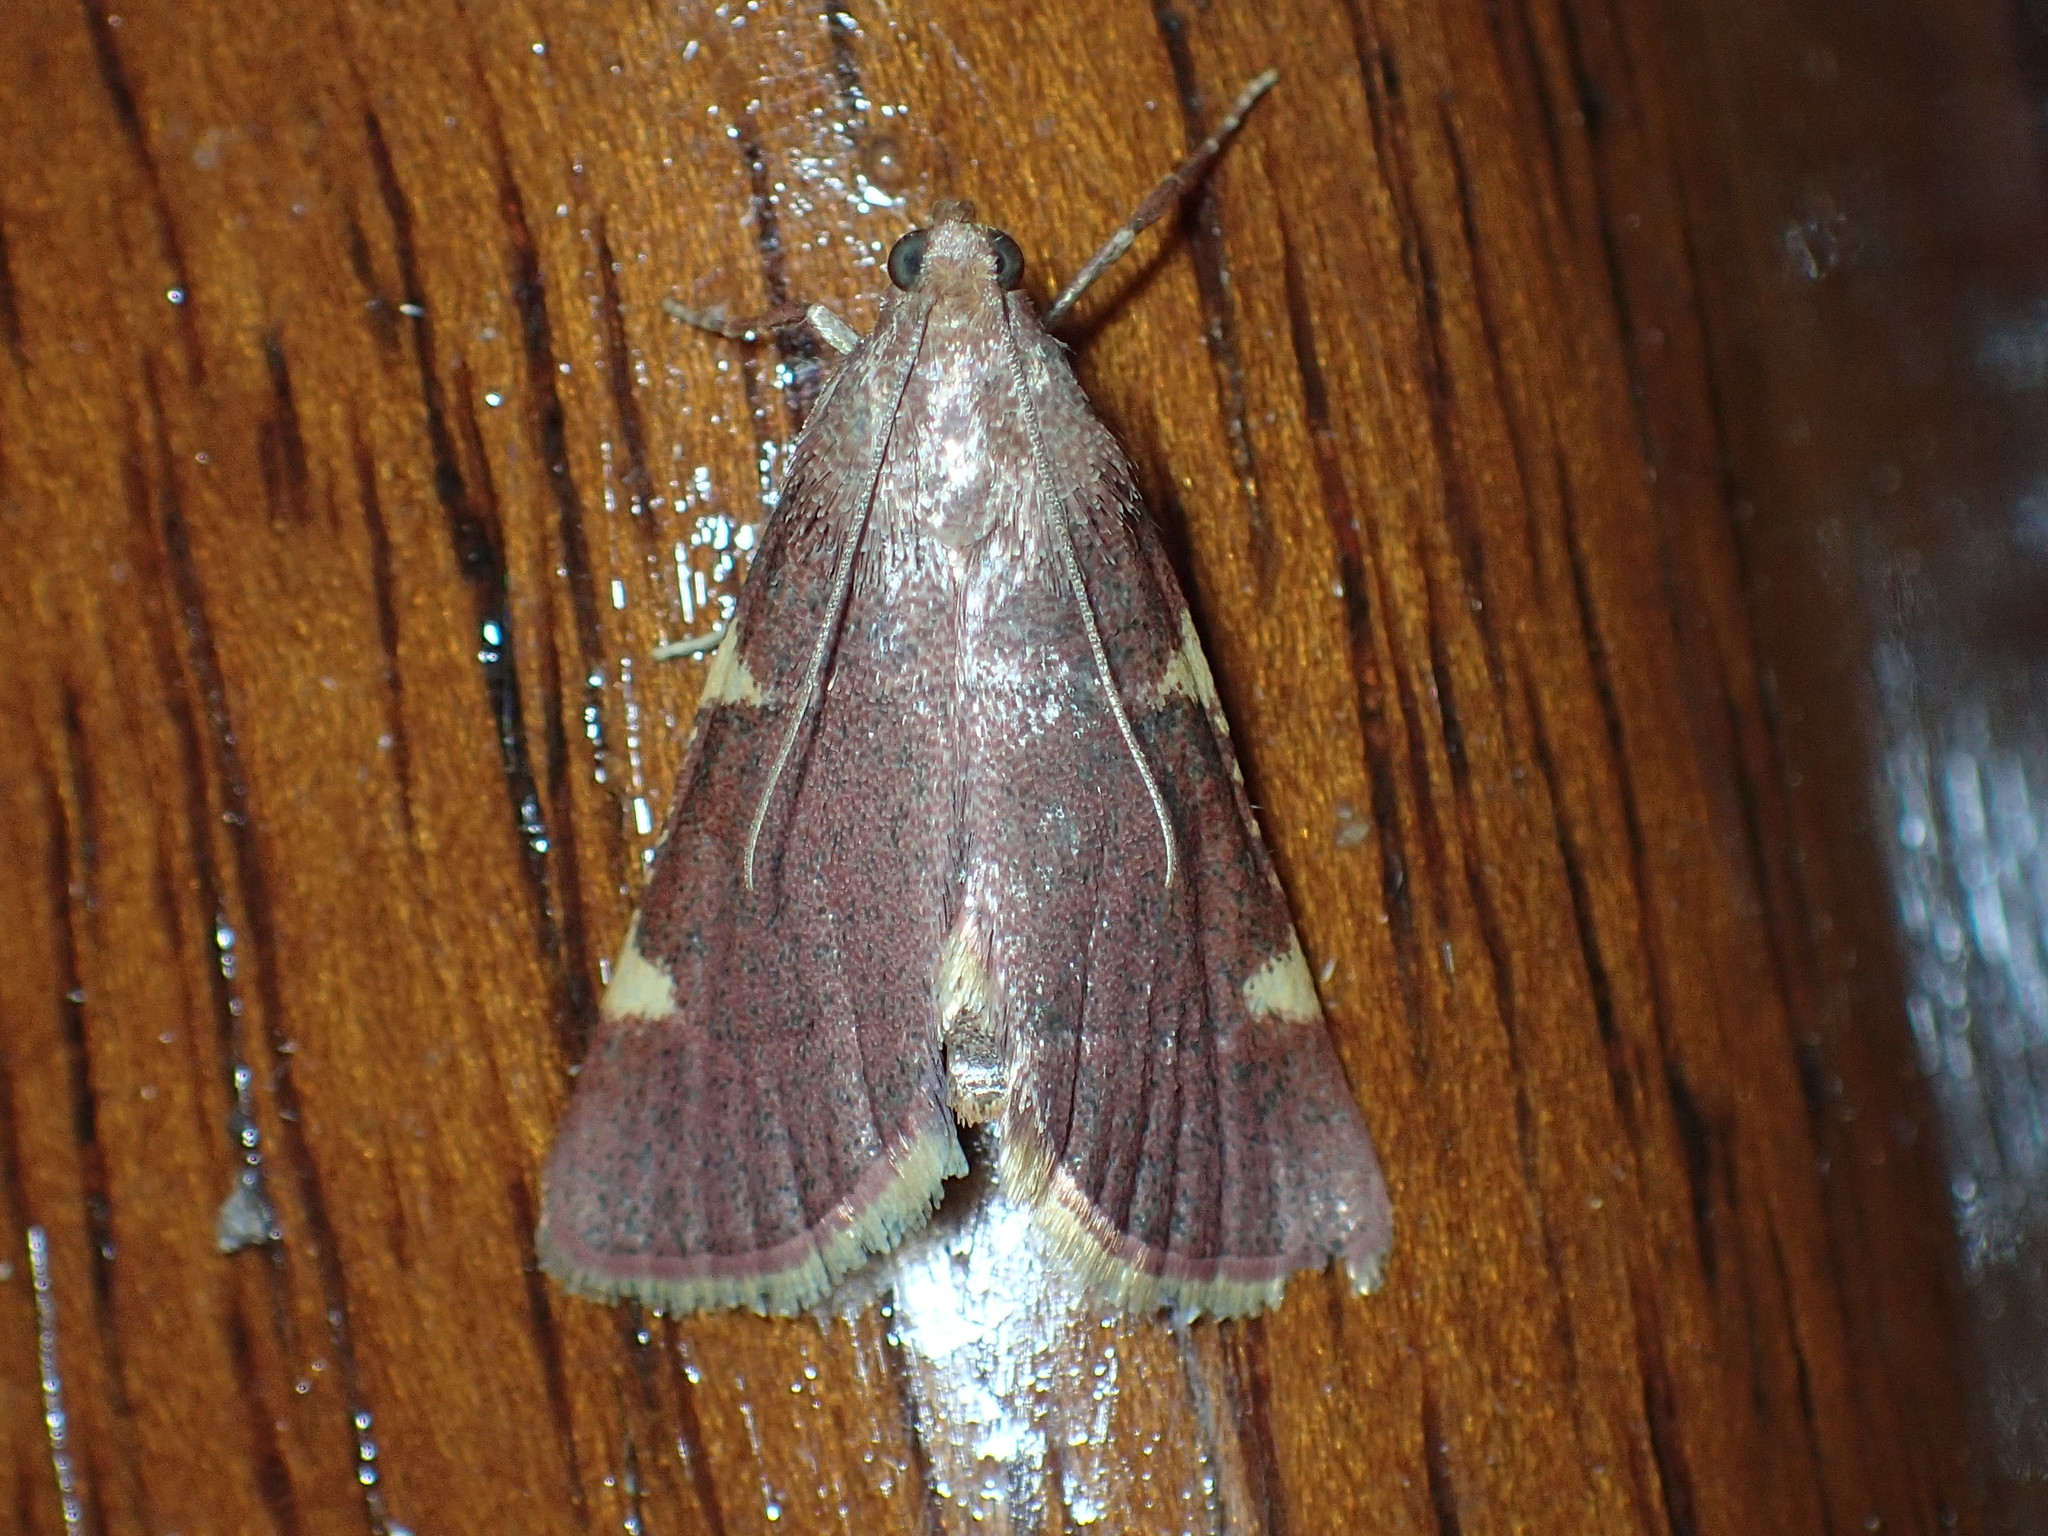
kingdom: Animalia
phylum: Arthropoda
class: Insecta
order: Lepidoptera
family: Pyralidae
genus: Hypsopygia
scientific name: Hypsopygia olinalis
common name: Yellow-fringed dolichomia moth
